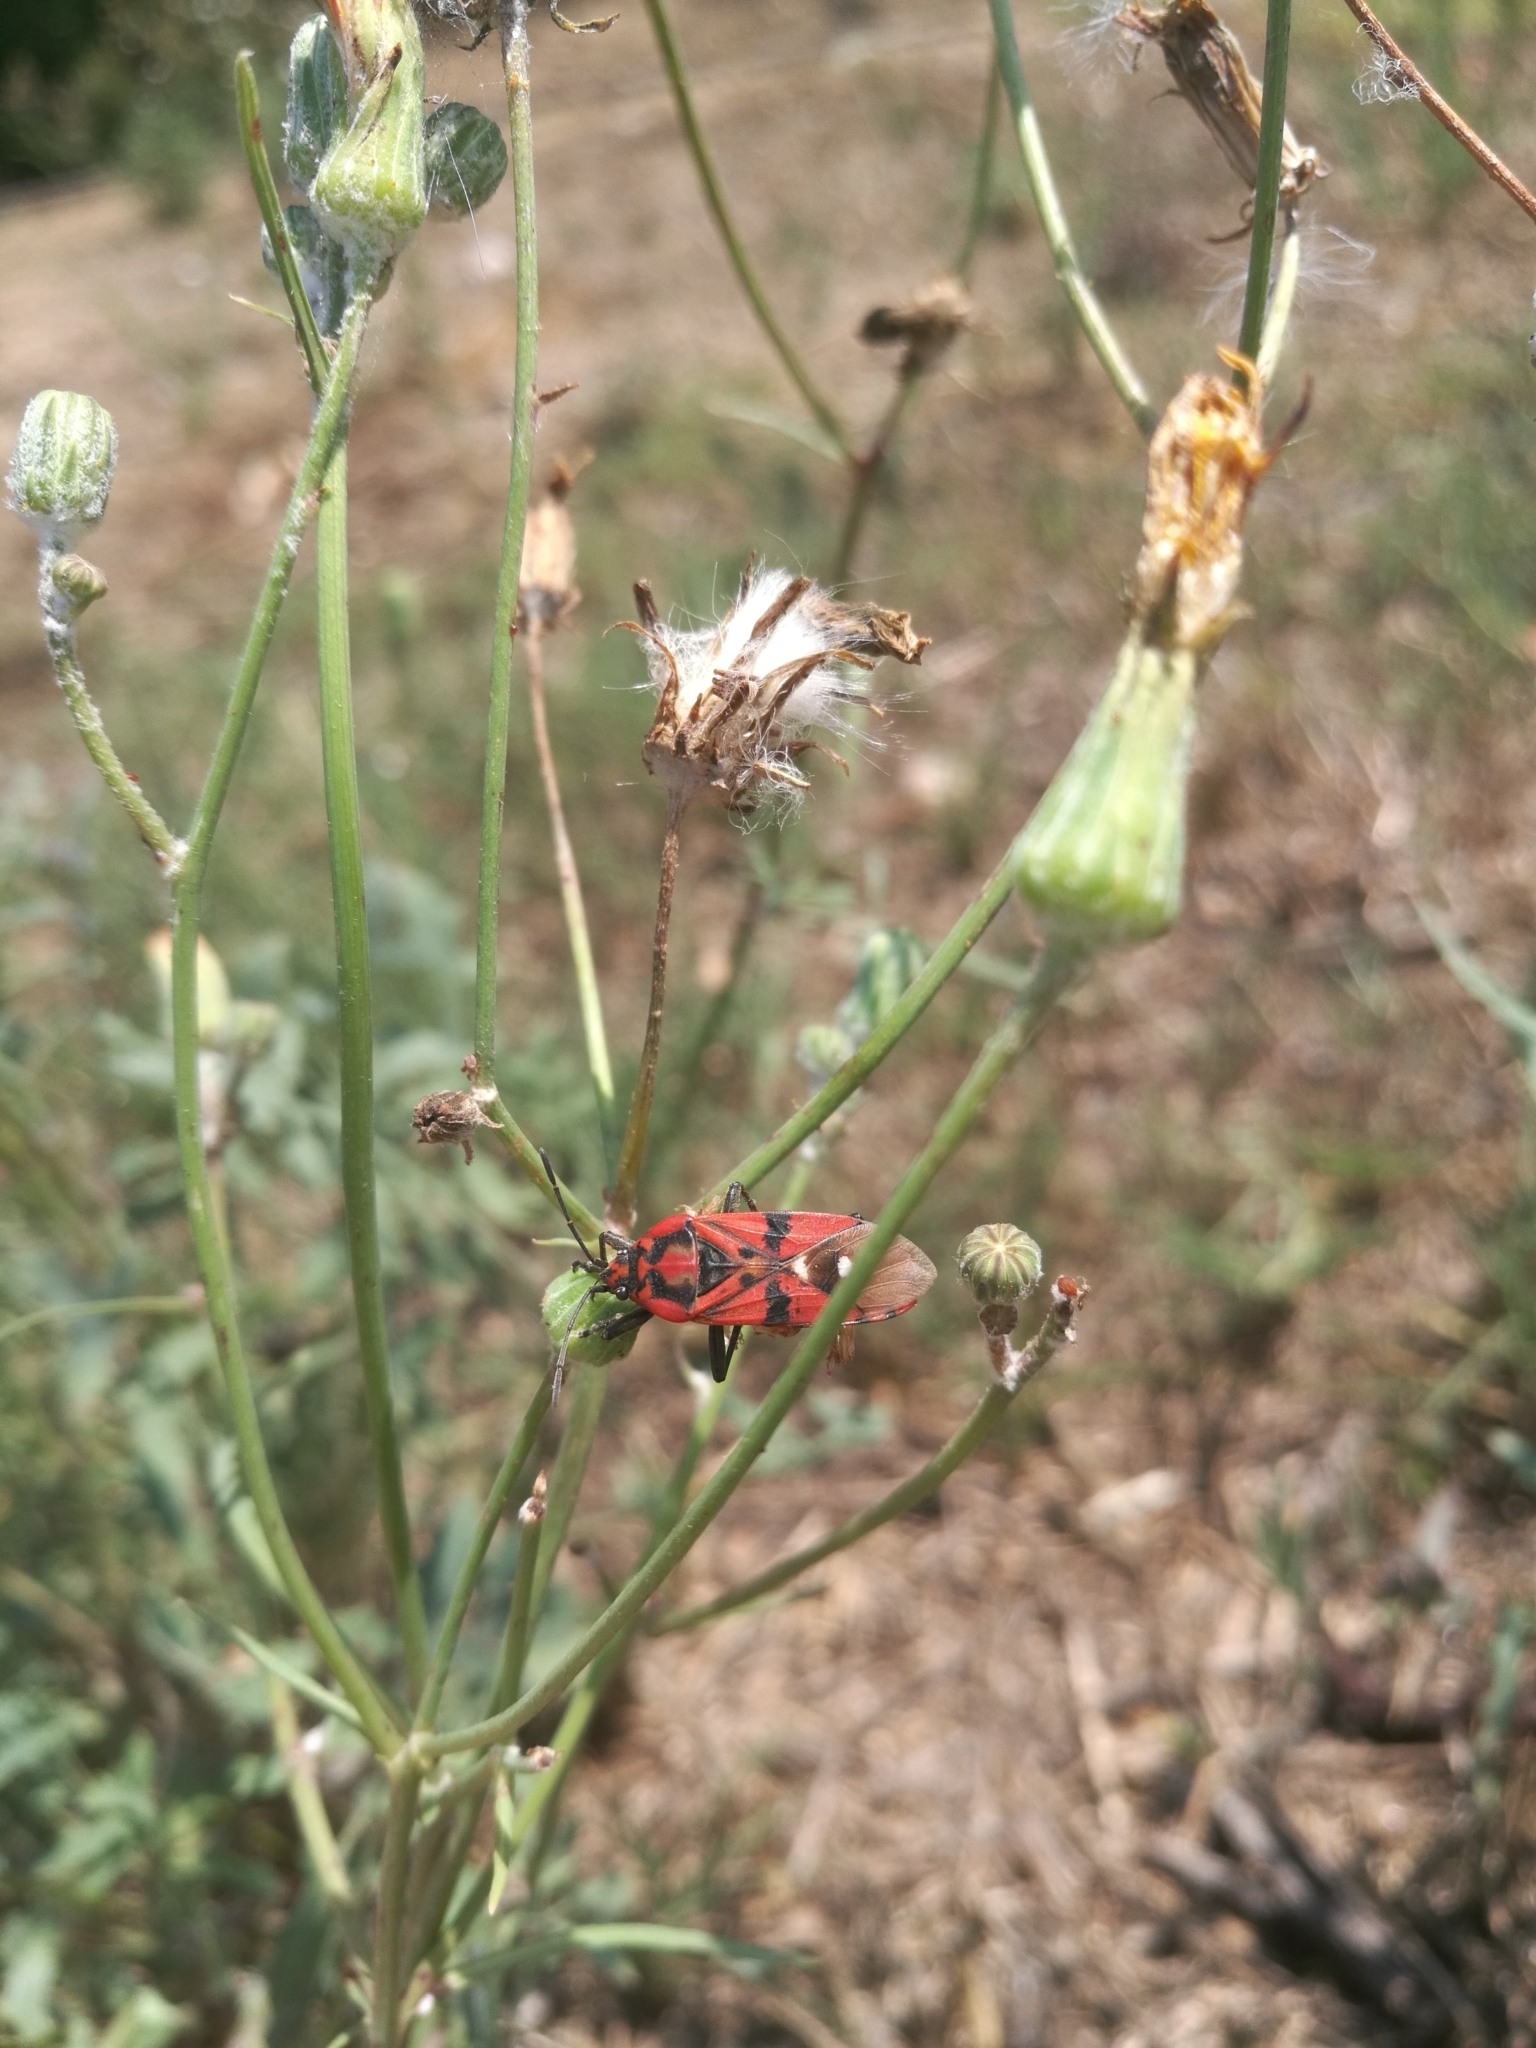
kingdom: Animalia
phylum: Arthropoda
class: Insecta
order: Hemiptera
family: Lygaeidae
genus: Spilostethus
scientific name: Spilostethus pandurus
